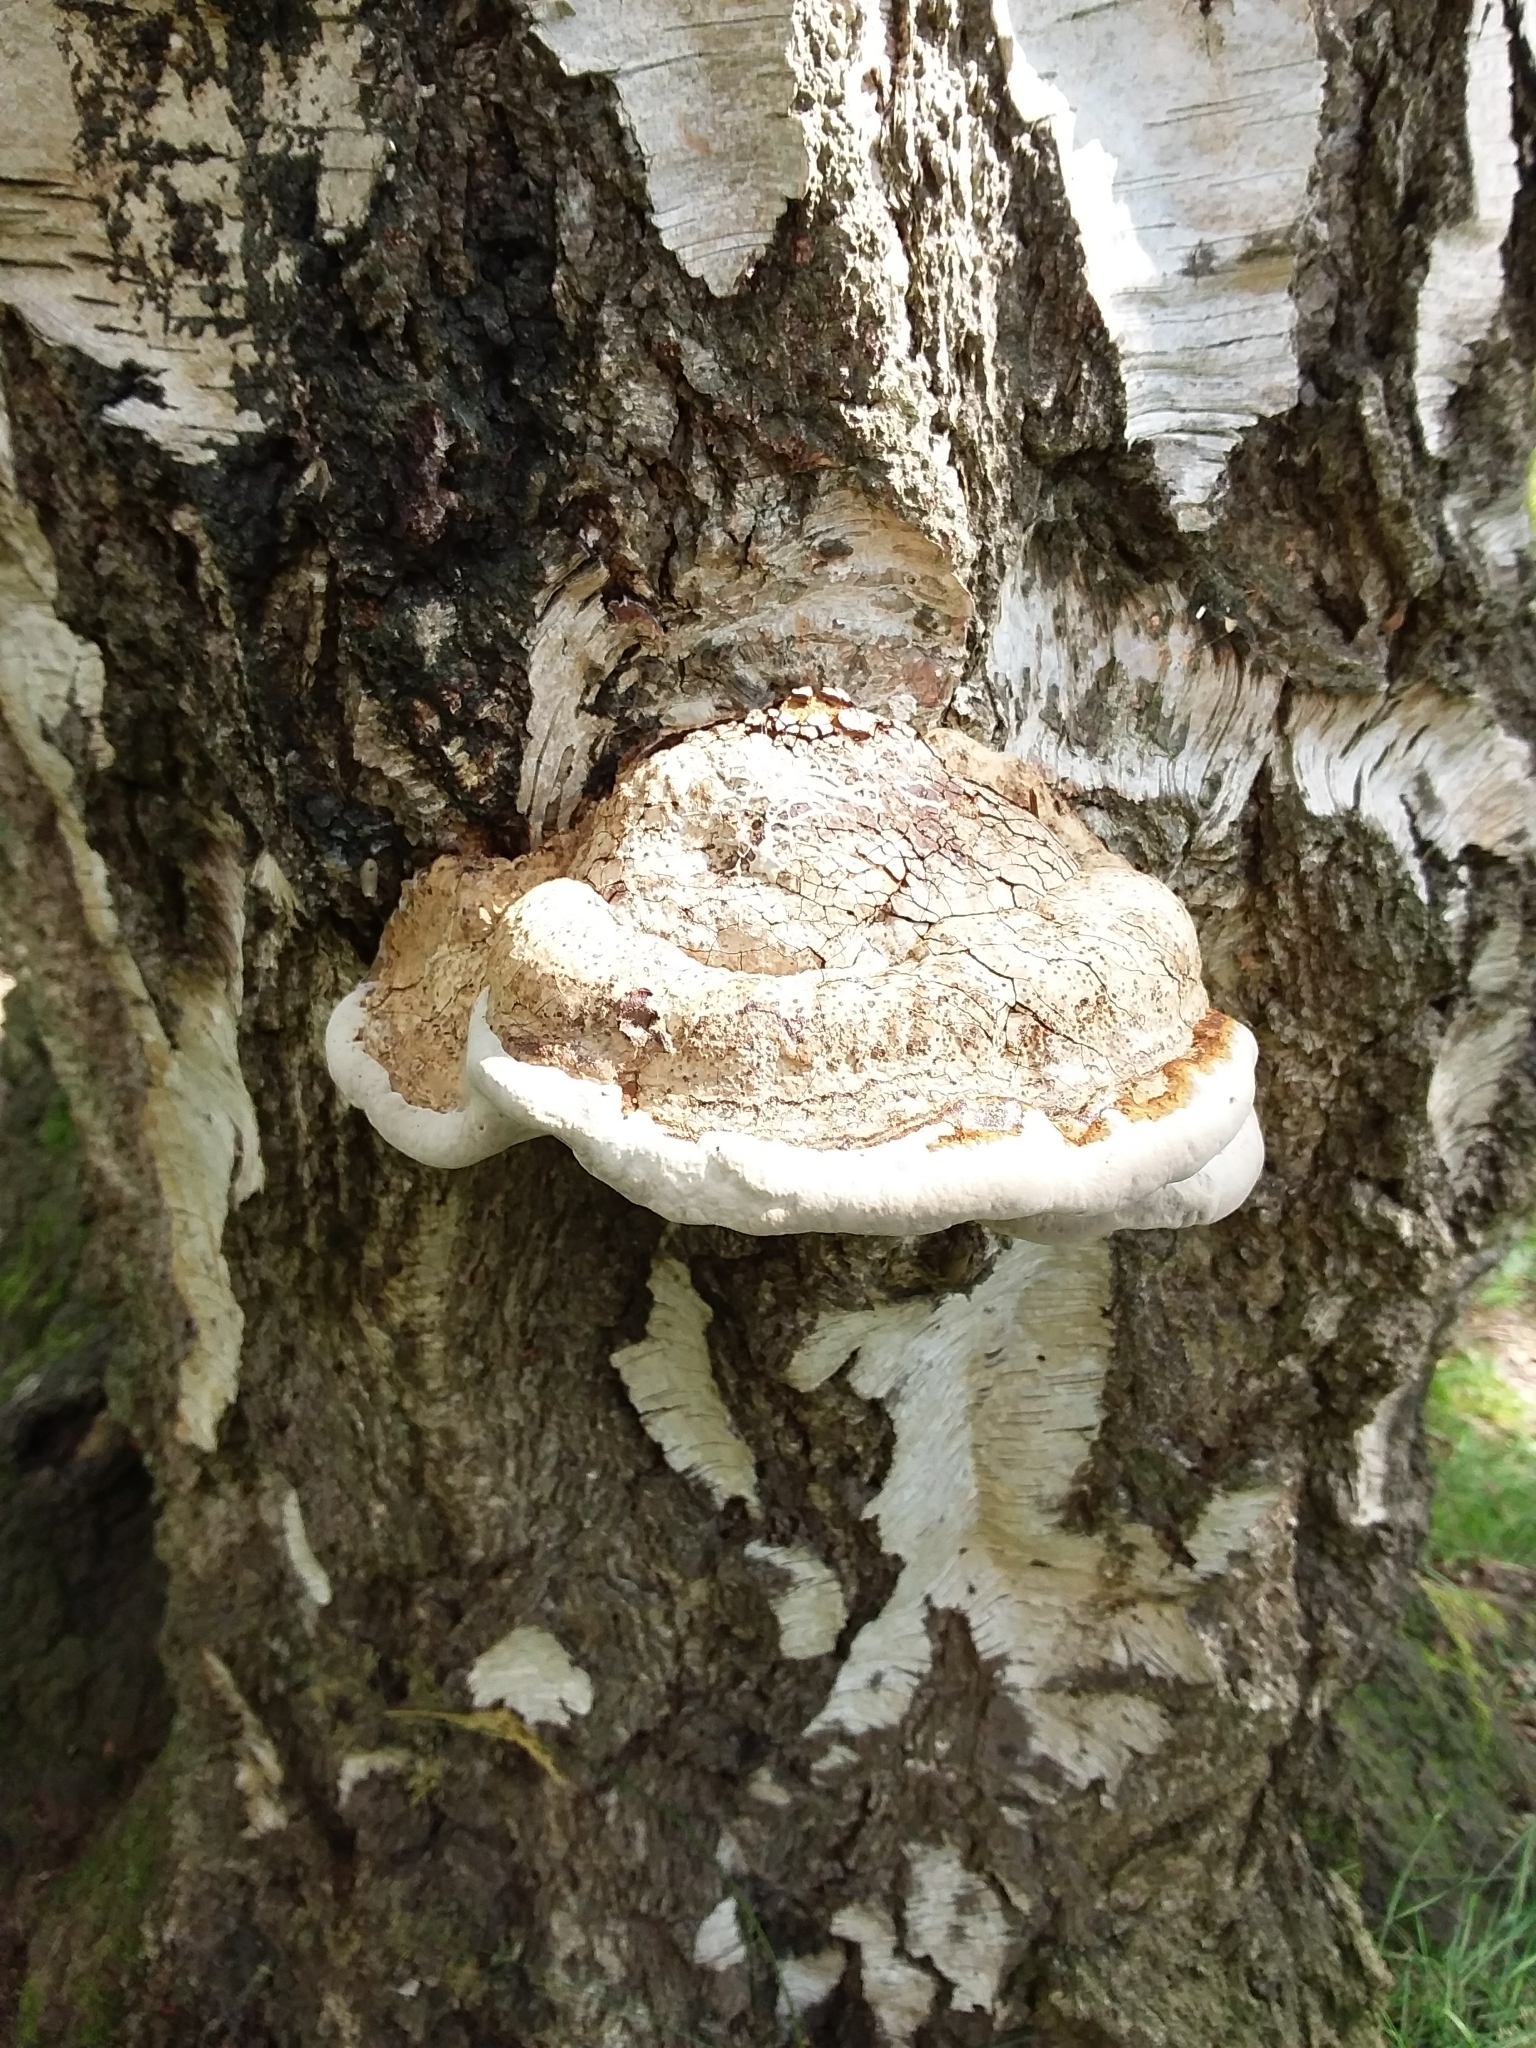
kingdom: Fungi
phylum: Basidiomycota
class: Agaricomycetes
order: Polyporales
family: Polyporaceae
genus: Fomes
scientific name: Fomes fomentarius
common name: Hoof fungus
